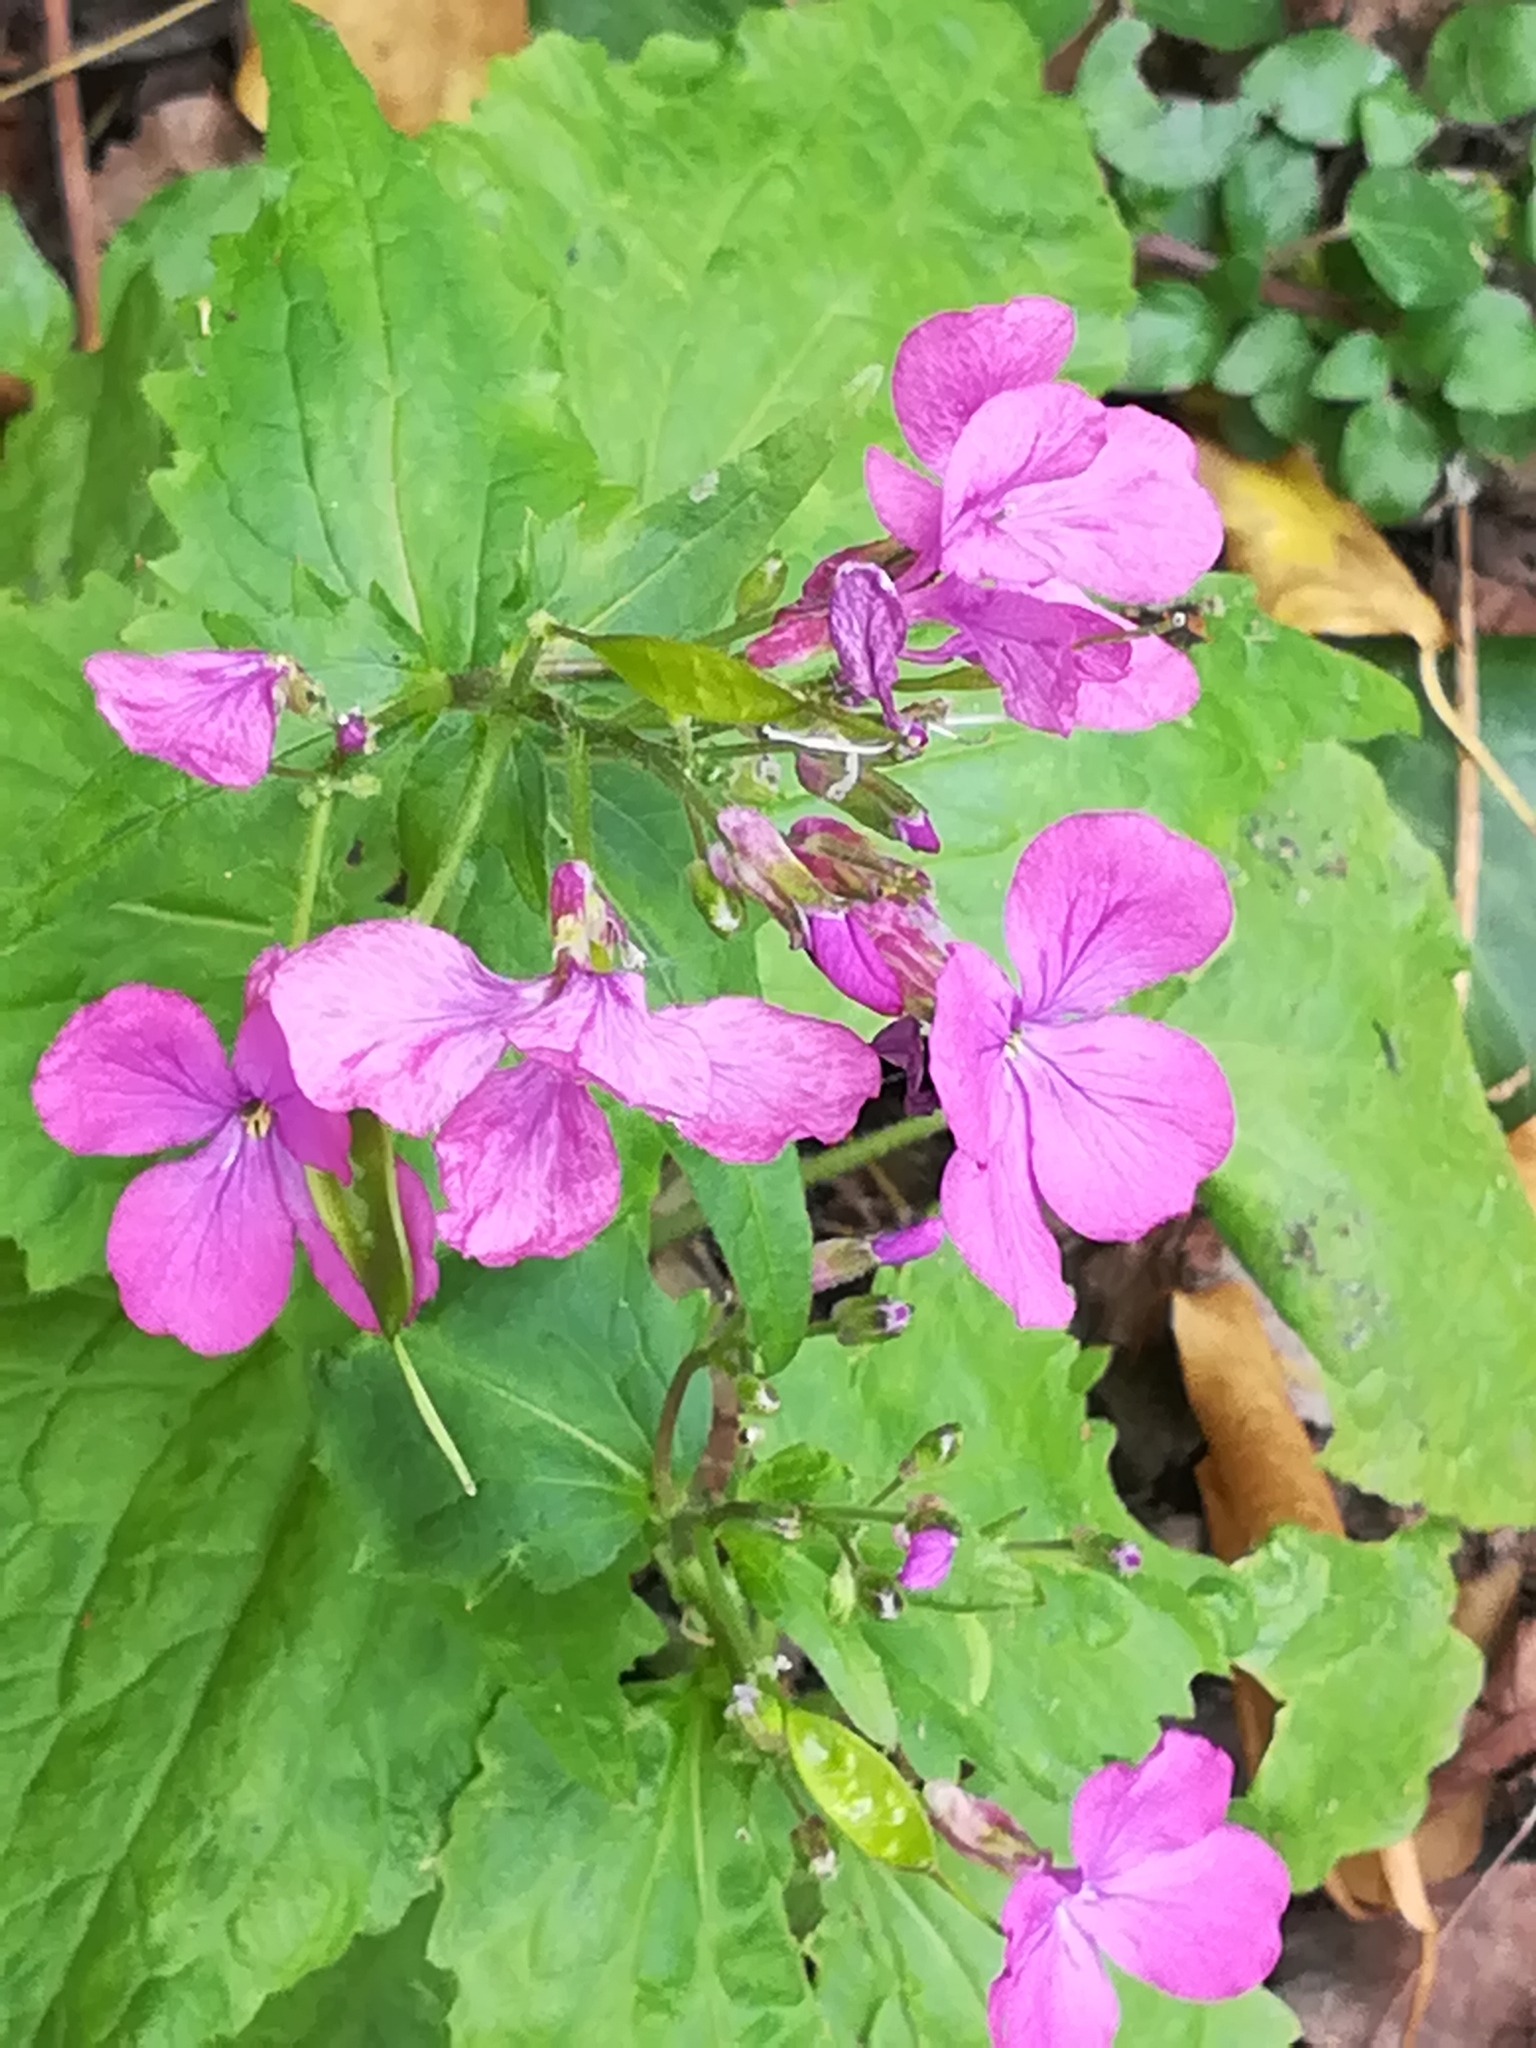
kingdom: Plantae
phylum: Tracheophyta
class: Magnoliopsida
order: Brassicales
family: Brassicaceae
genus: Lunaria
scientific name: Lunaria annua
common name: Honesty
